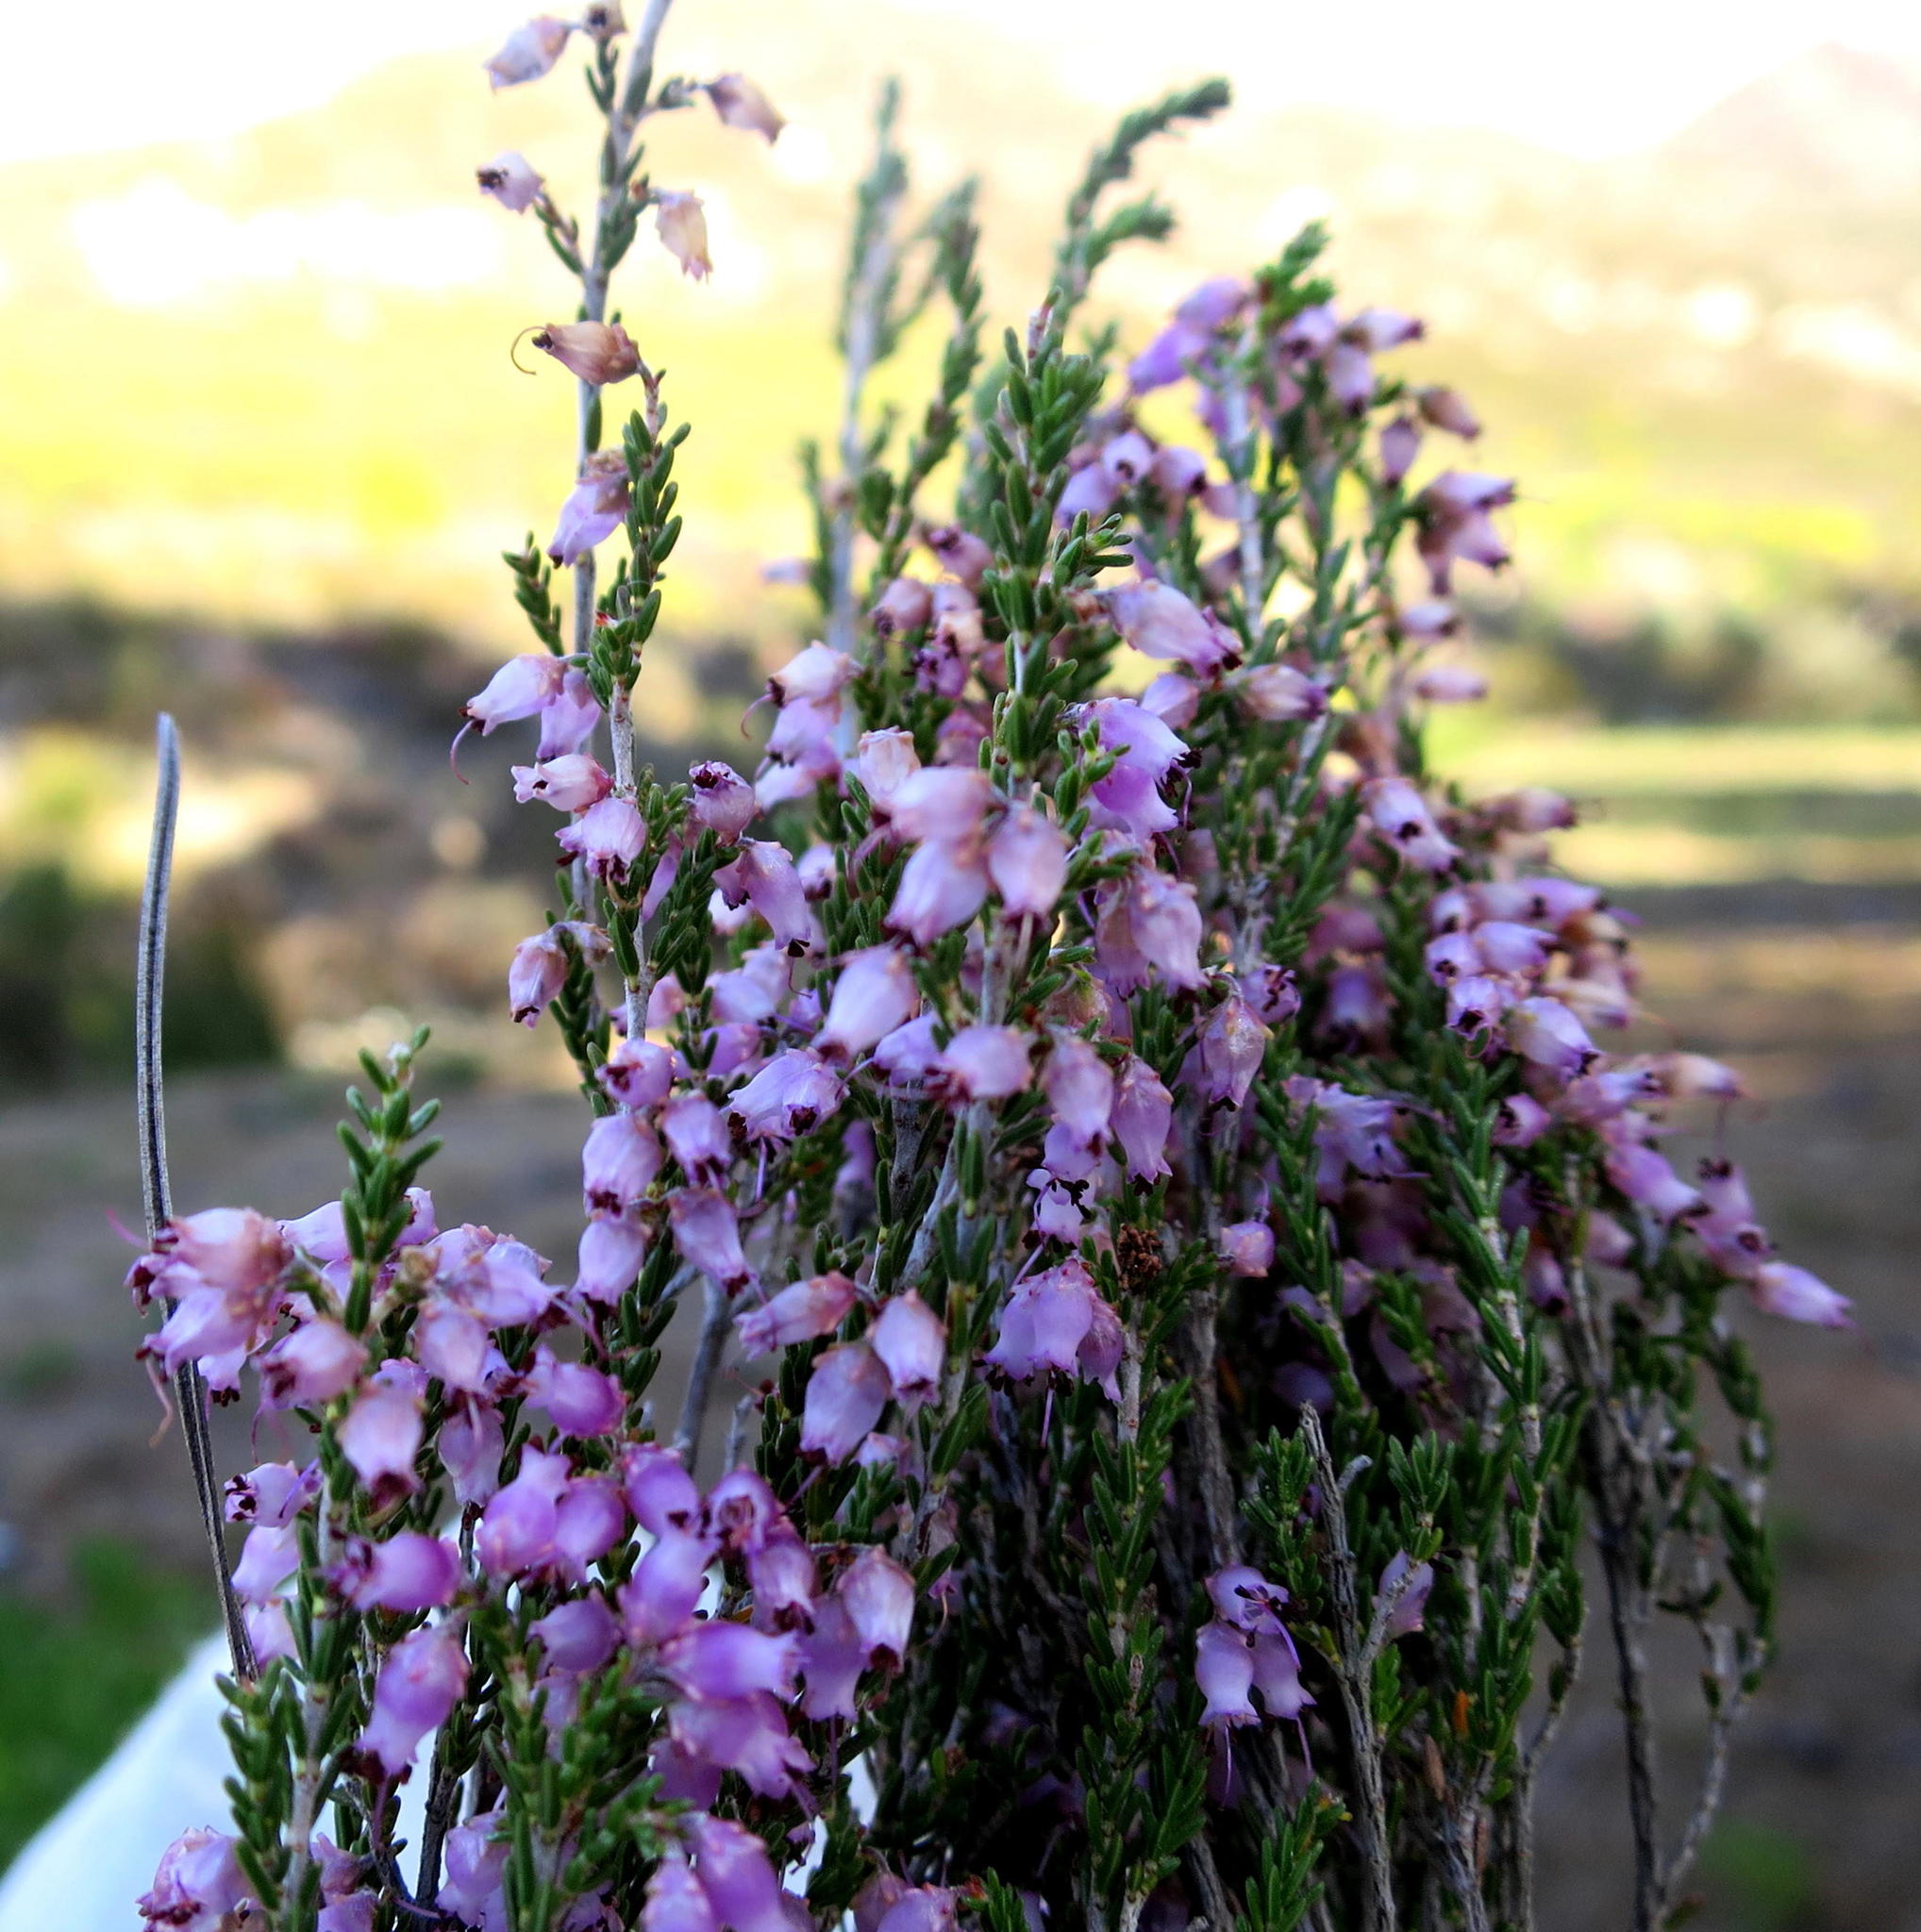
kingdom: Plantae
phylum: Tracheophyta
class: Magnoliopsida
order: Ericales
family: Ericaceae
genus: Erica
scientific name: Erica vlokii
